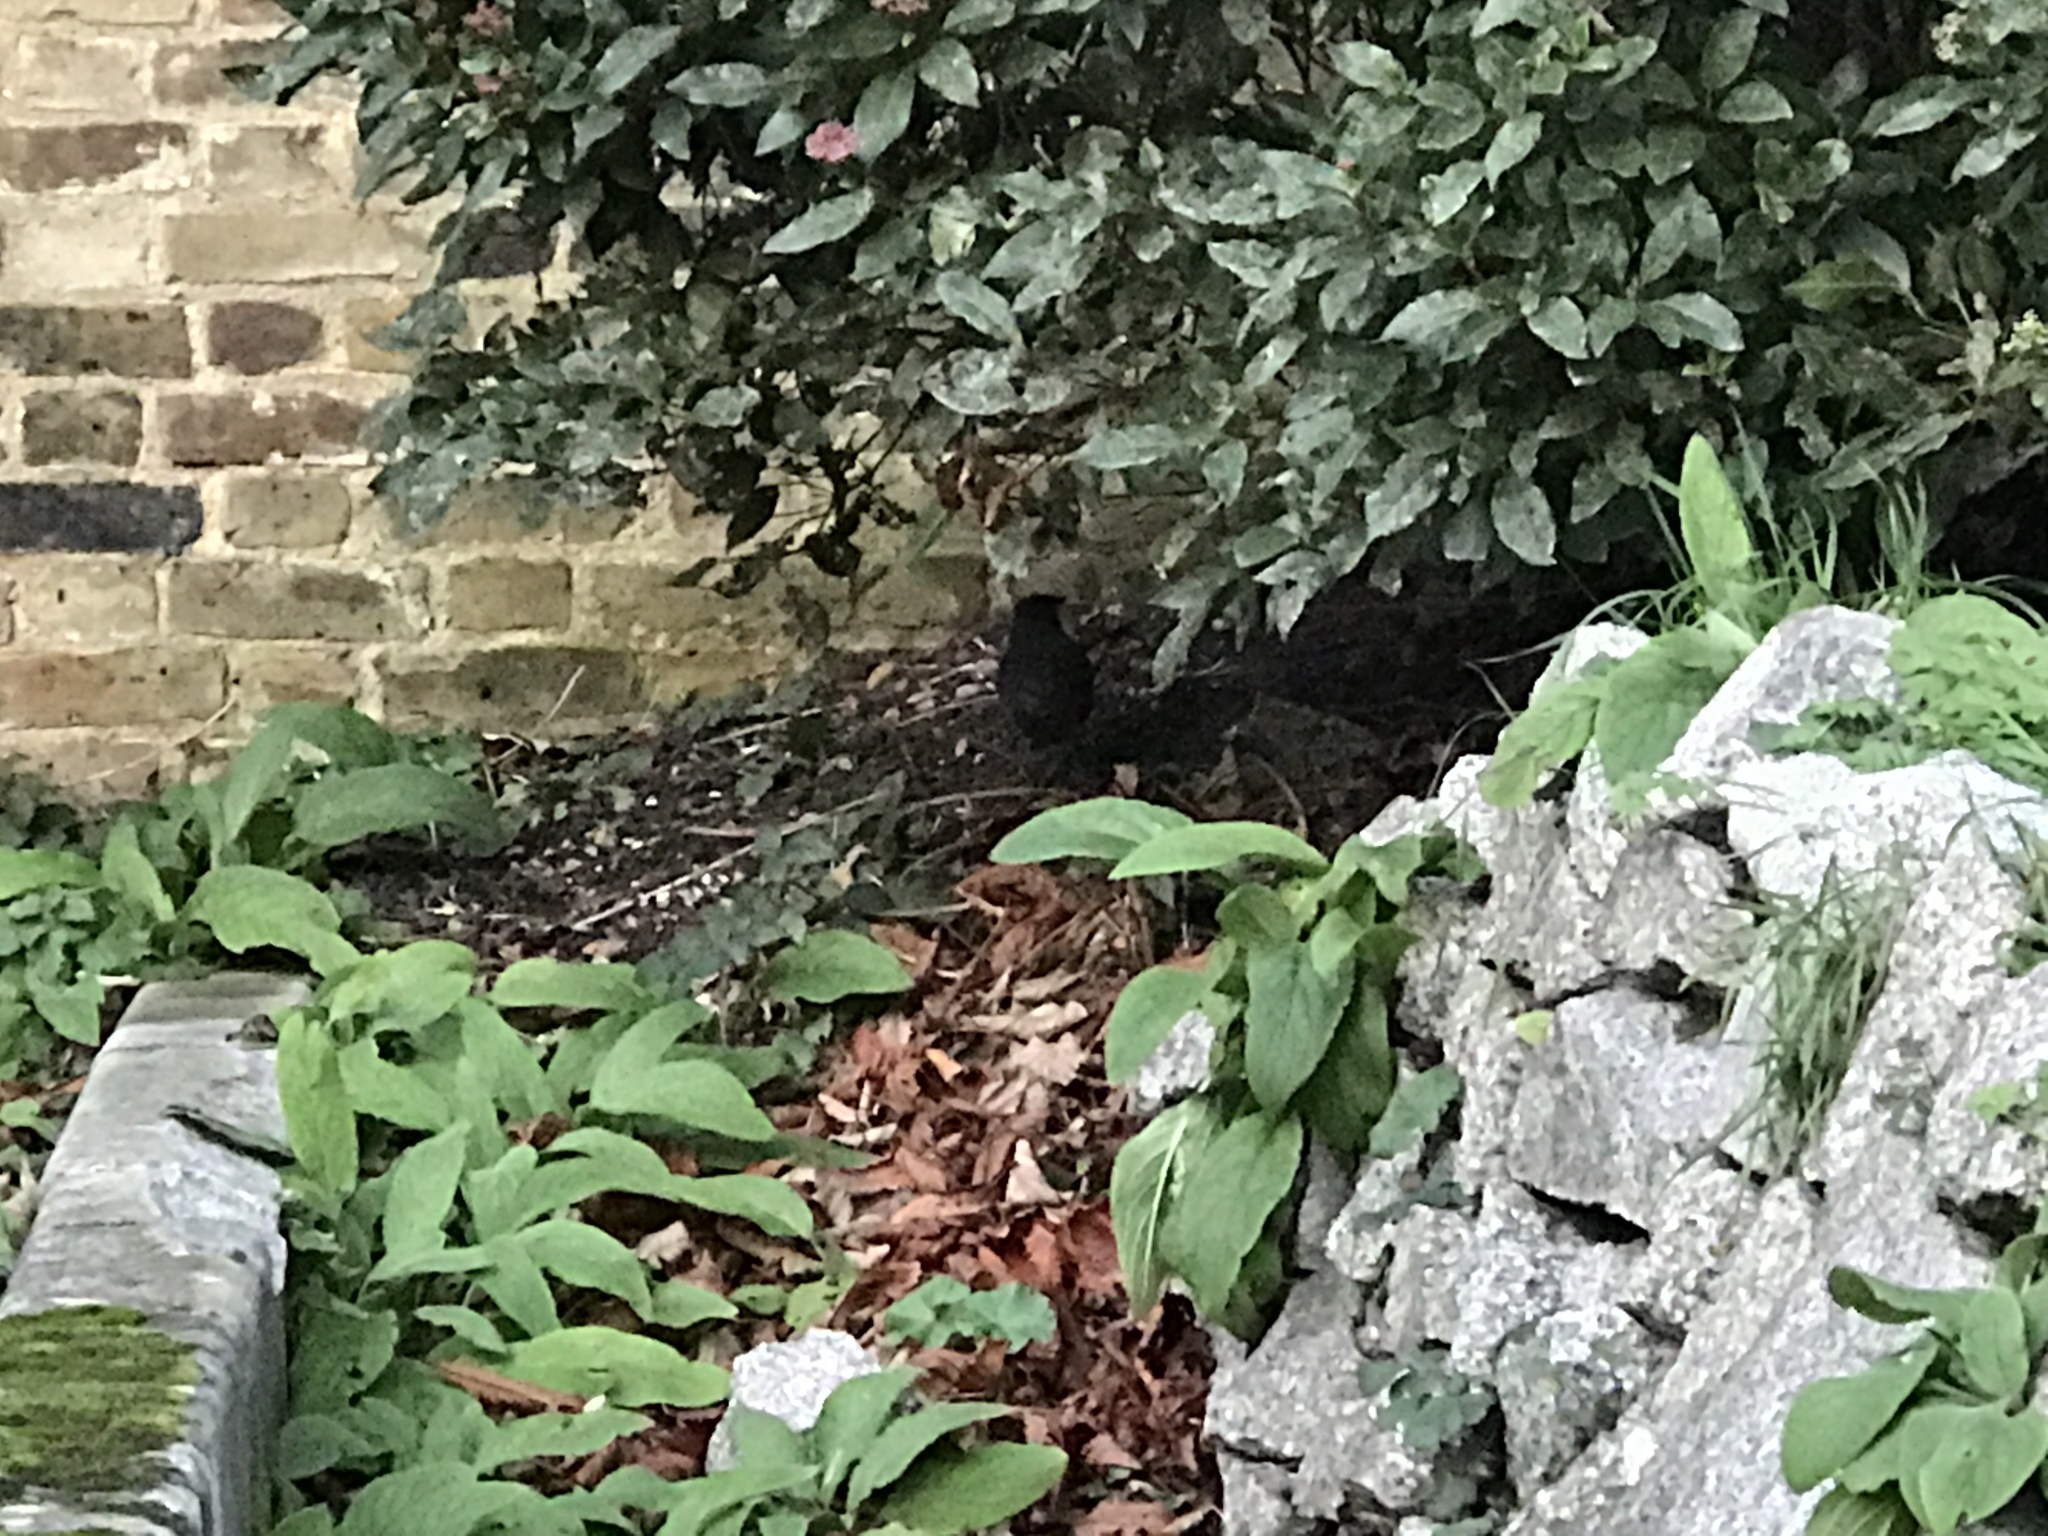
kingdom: Animalia
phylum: Chordata
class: Aves
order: Passeriformes
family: Turdidae
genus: Turdus
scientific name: Turdus merula
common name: Common blackbird
